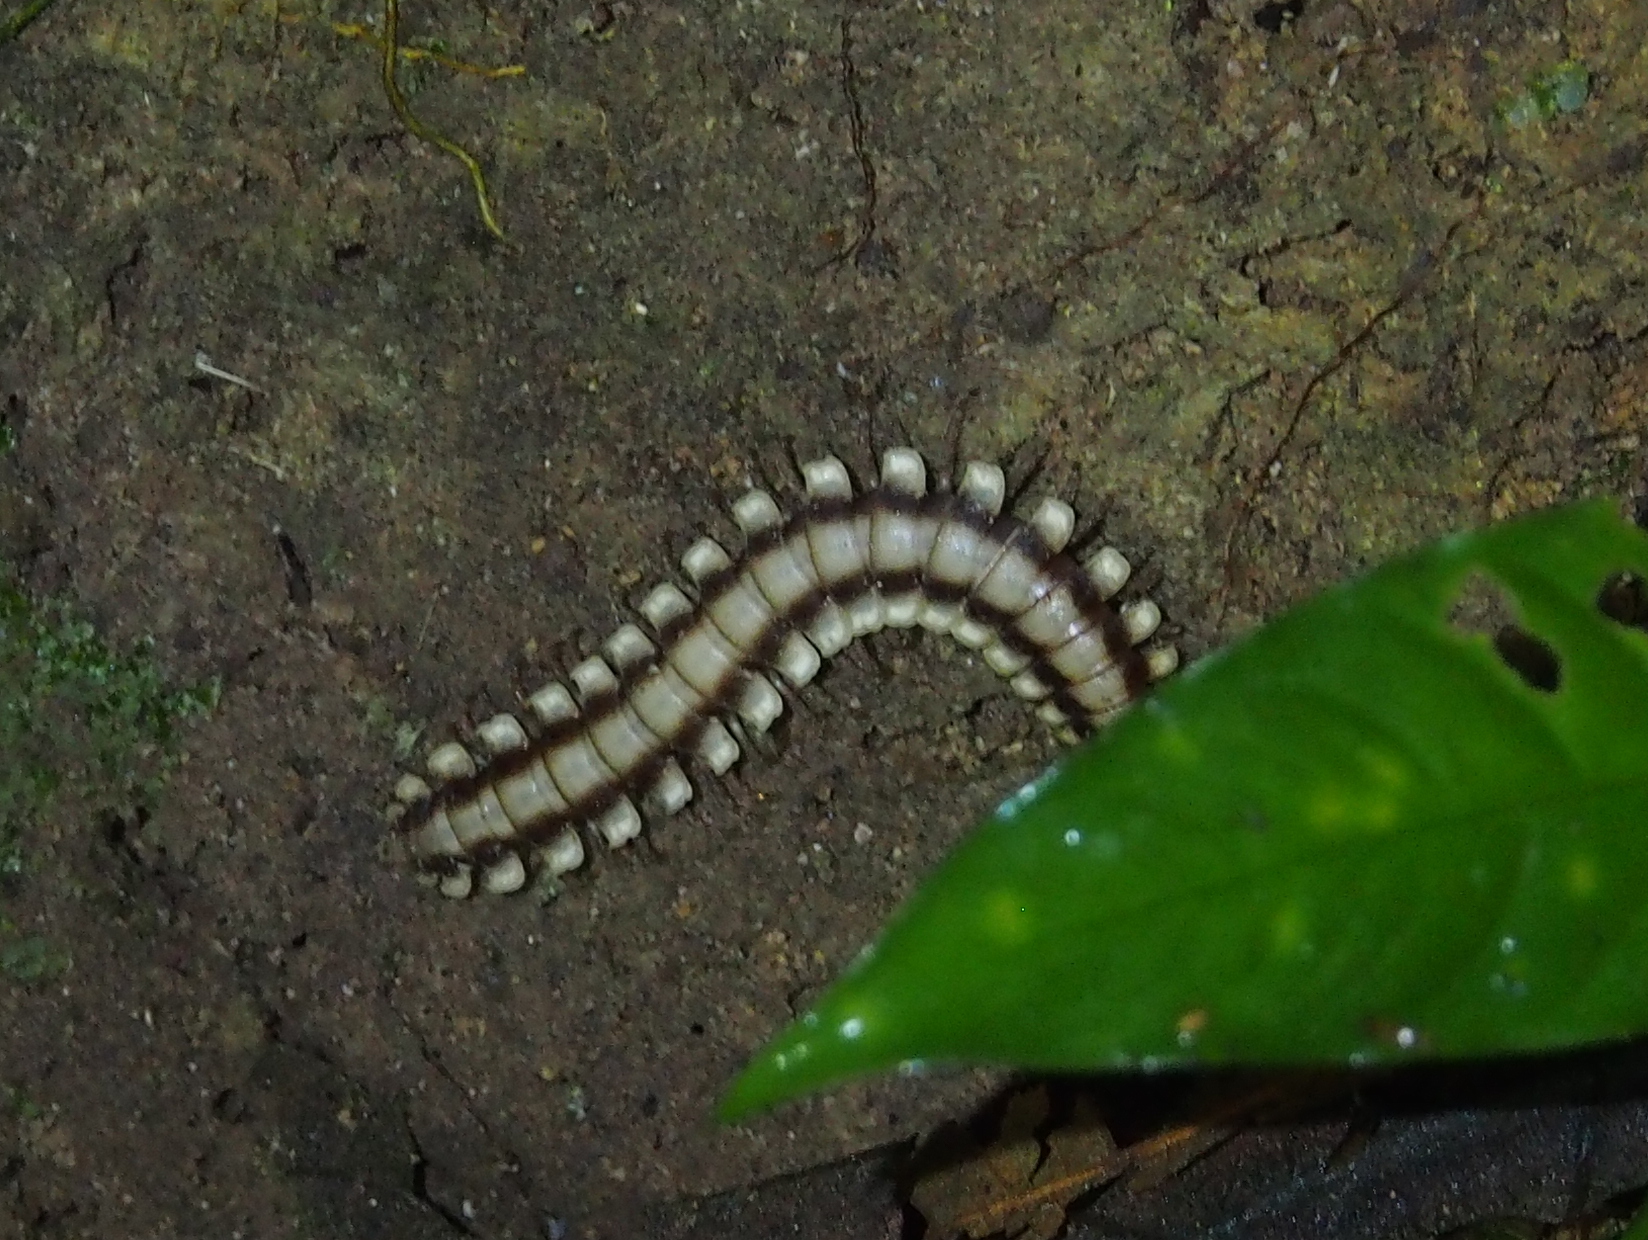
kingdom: Animalia
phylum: Arthropoda
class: Diplopoda
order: Polydesmida
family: Platyrhacidae
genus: Nyssodesmus
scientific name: Nyssodesmus python
